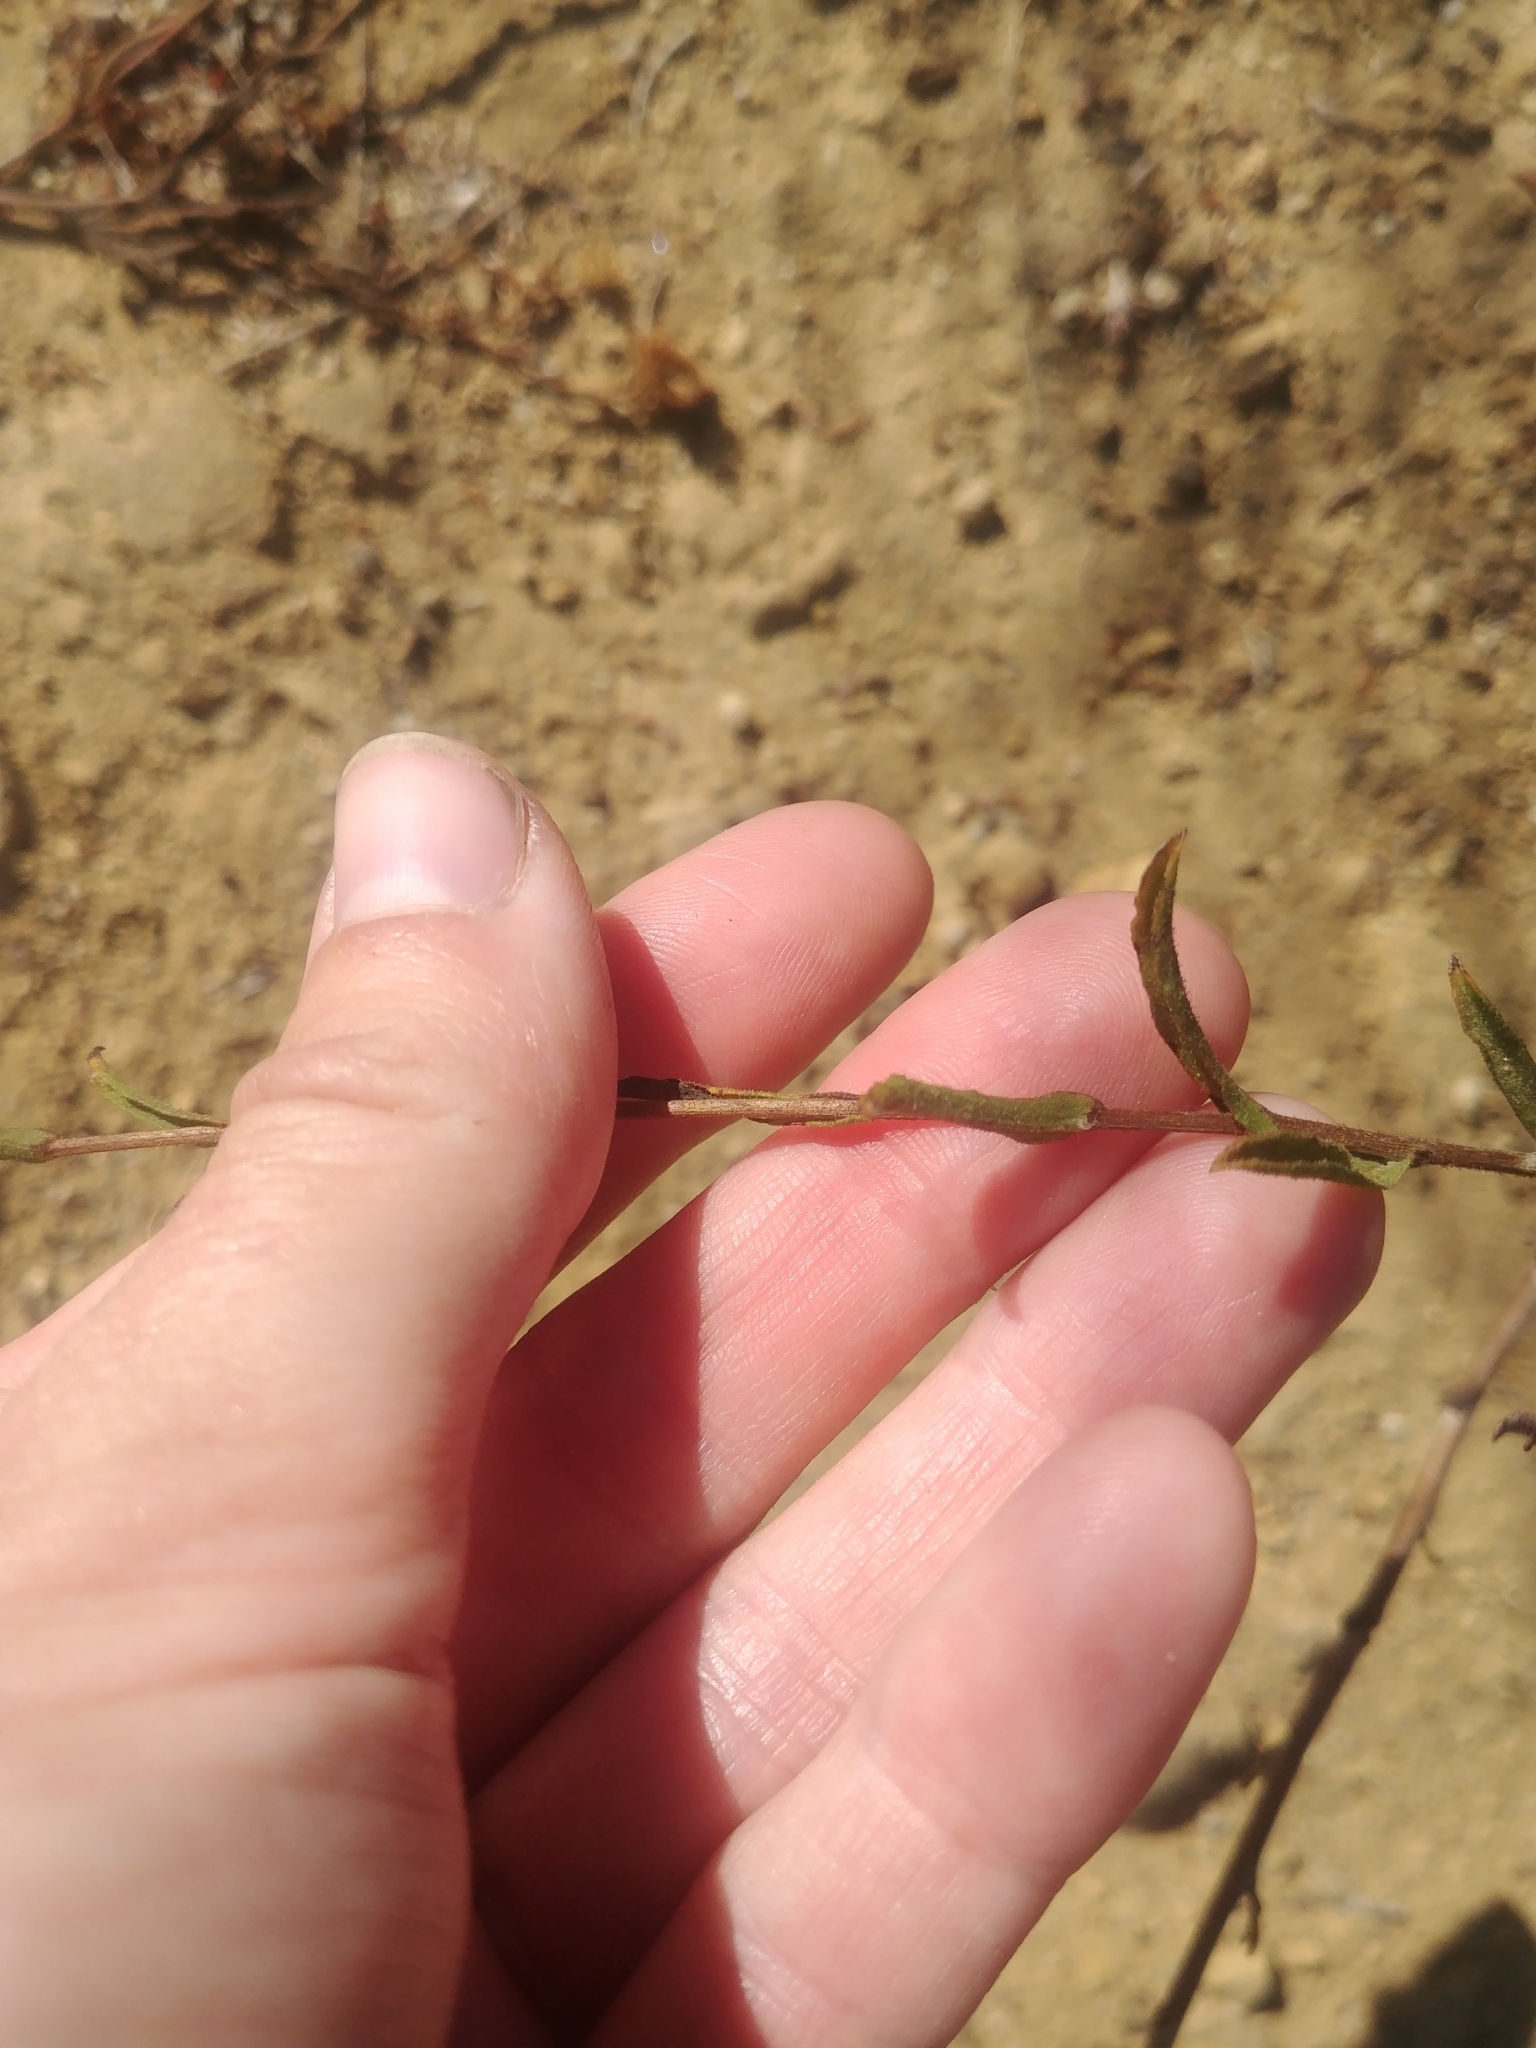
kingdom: Plantae
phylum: Tracheophyta
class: Magnoliopsida
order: Asterales
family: Asteraceae
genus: Corethrogyne
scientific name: Corethrogyne filaginifolia
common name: Sand-aster
